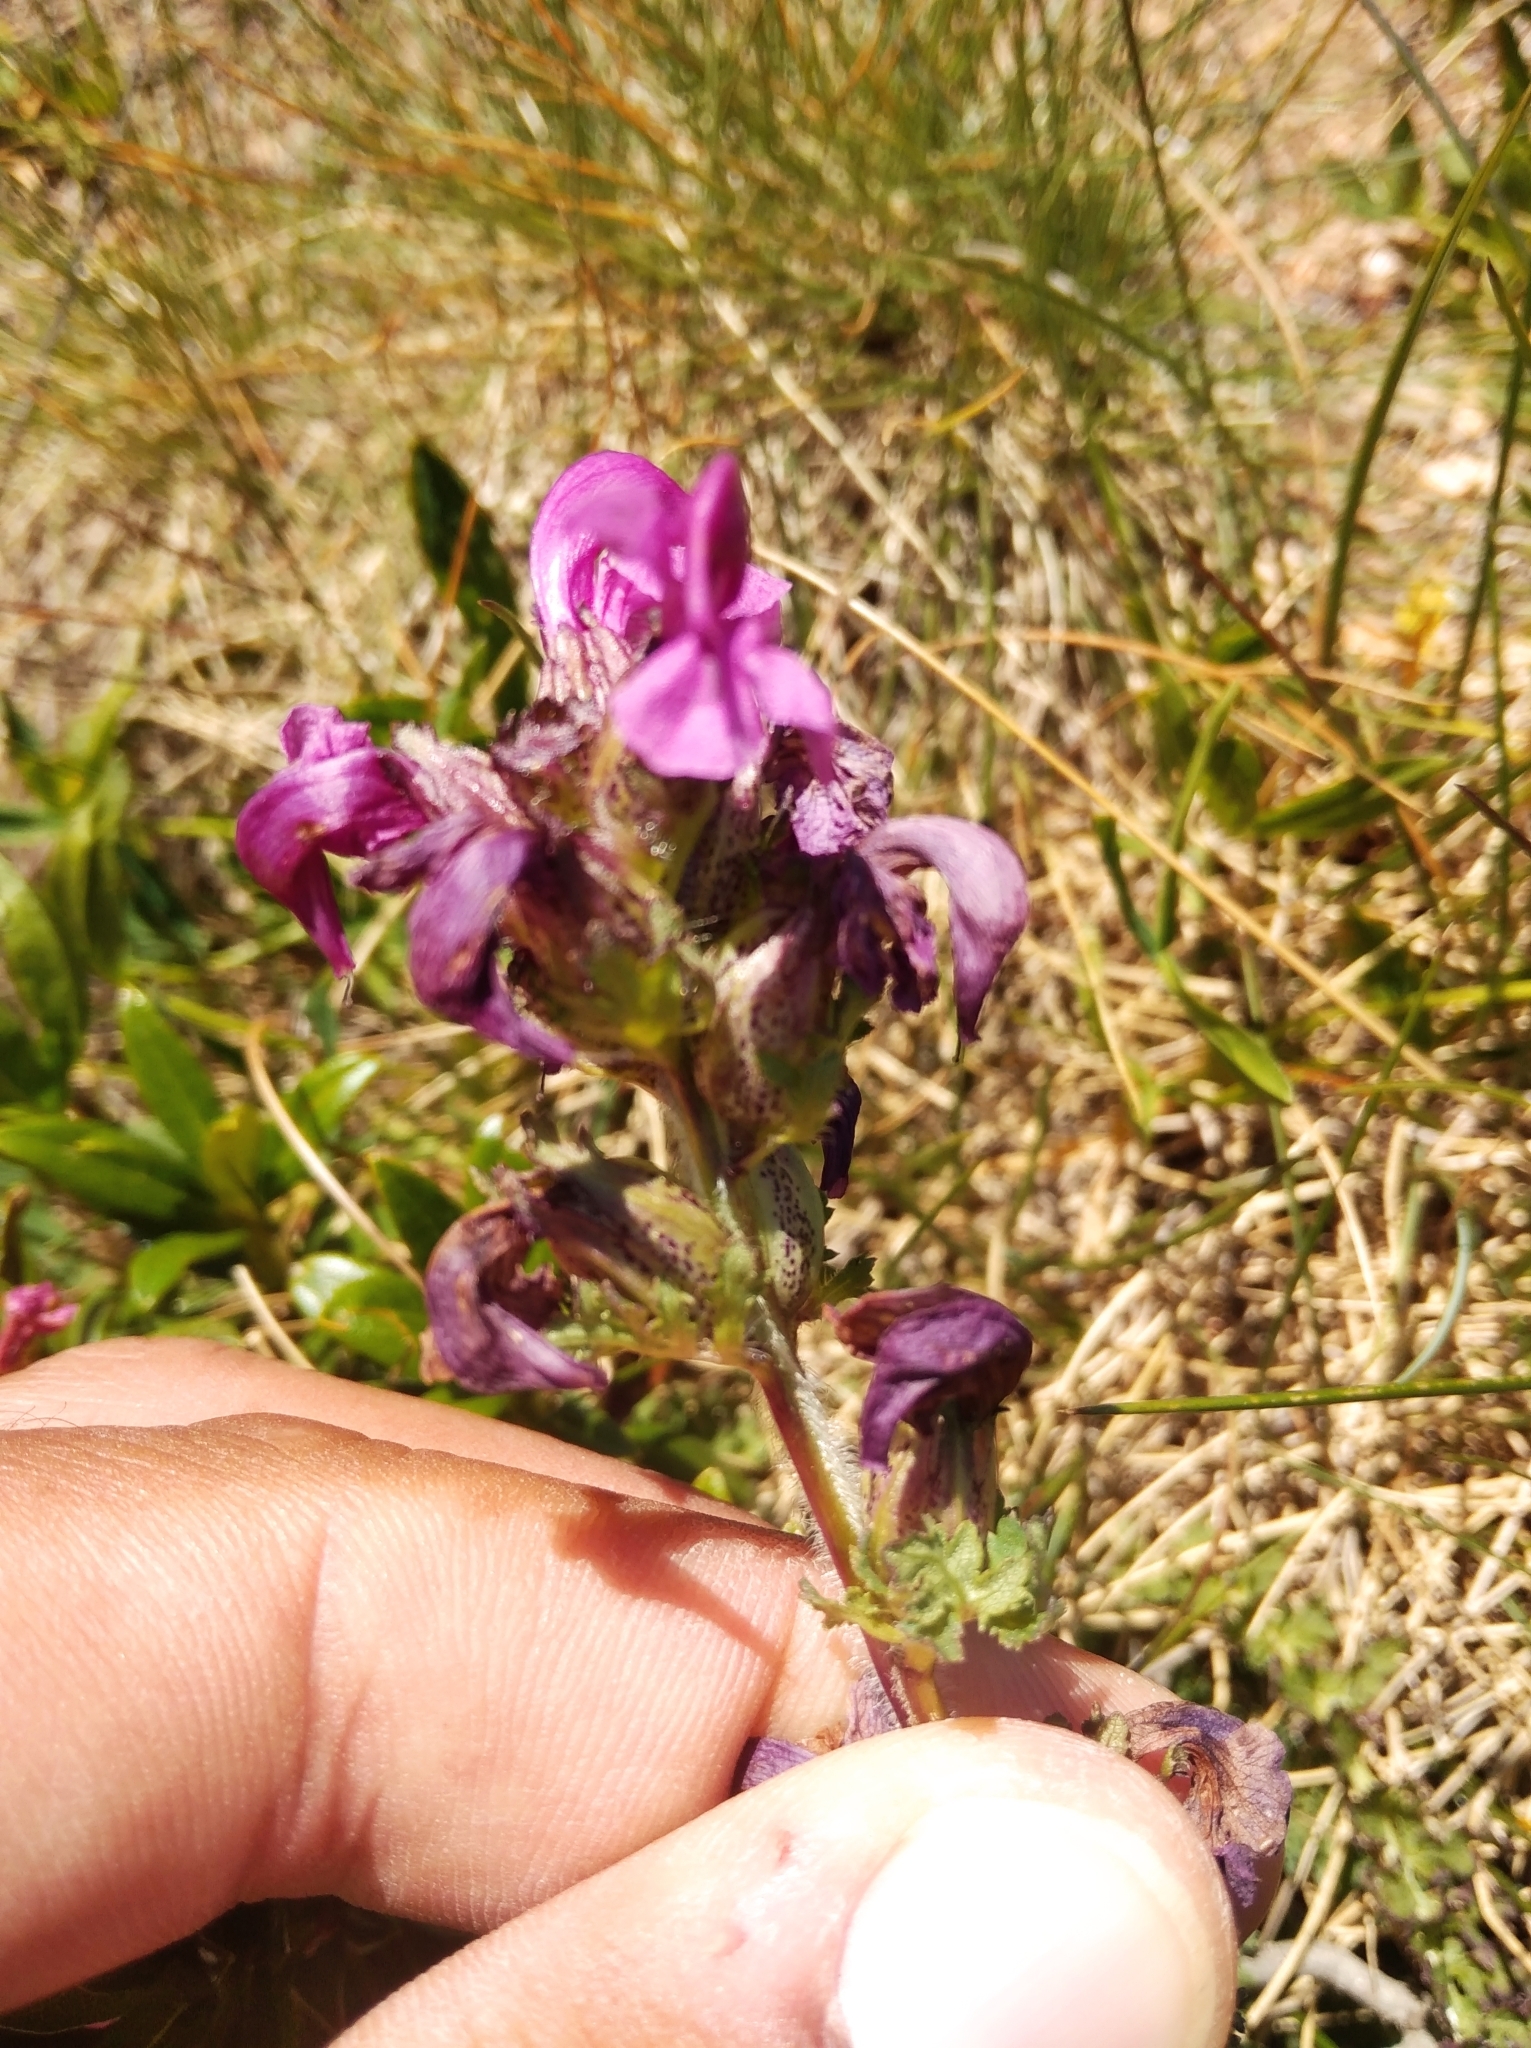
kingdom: Plantae
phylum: Tracheophyta
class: Magnoliopsida
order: Lamiales
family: Orobanchaceae
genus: Pedicularis
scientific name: Pedicularis pyrenaica
